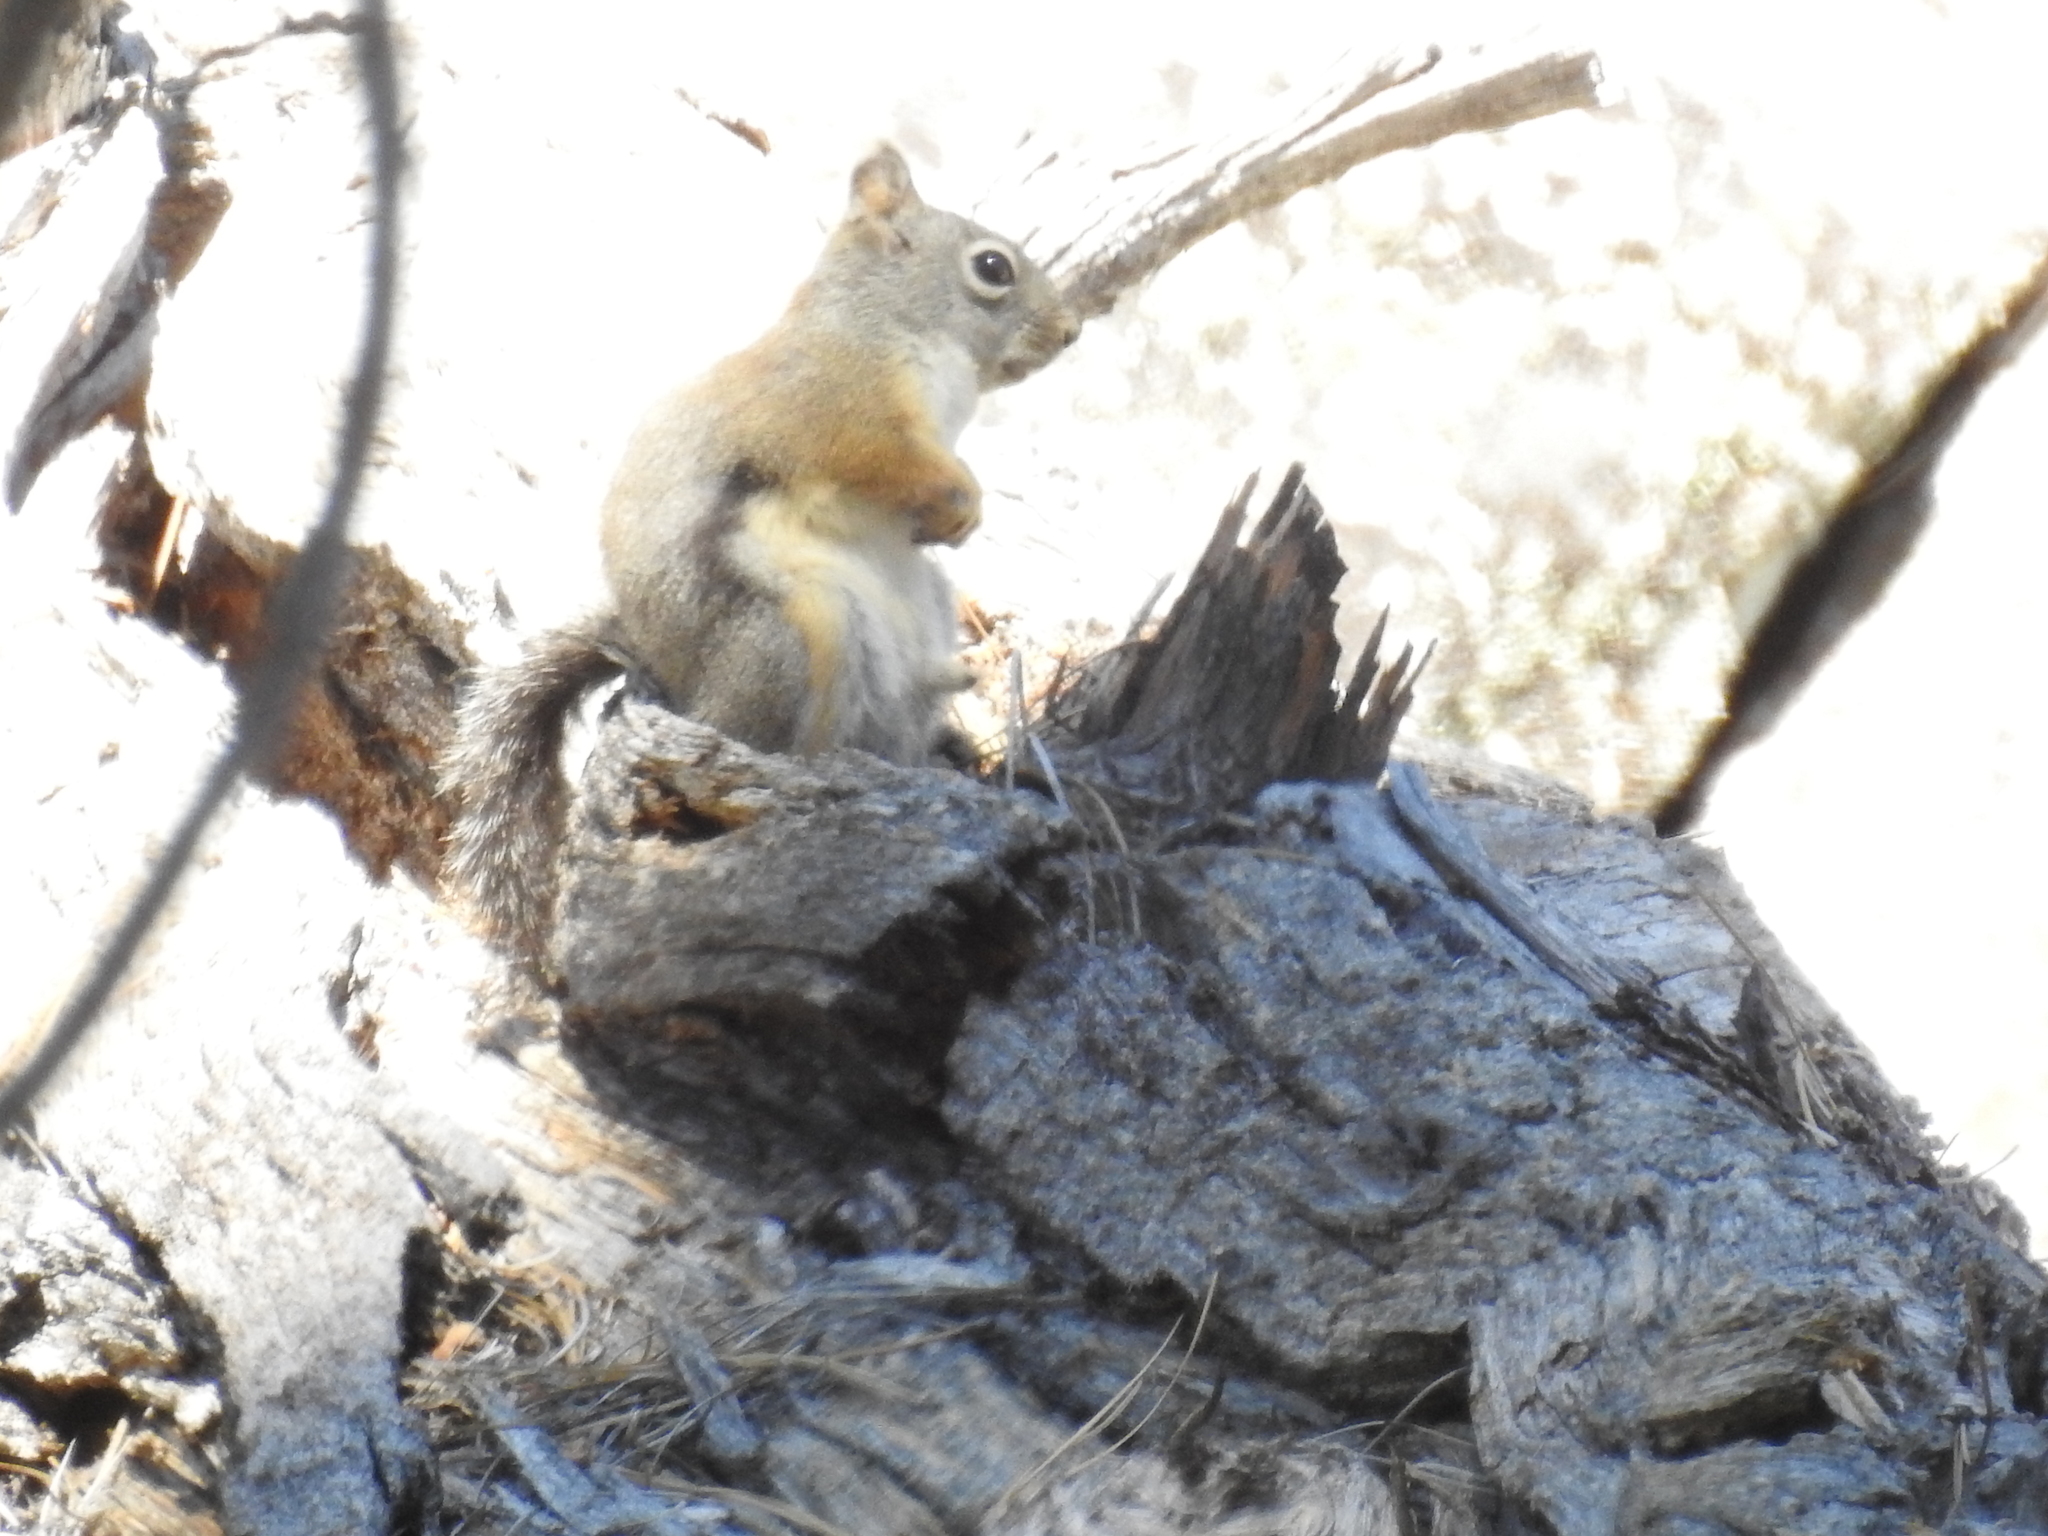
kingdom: Animalia
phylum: Chordata
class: Mammalia
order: Rodentia
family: Sciuridae
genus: Tamiasciurus
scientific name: Tamiasciurus douglasii
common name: Douglas's squirrel
